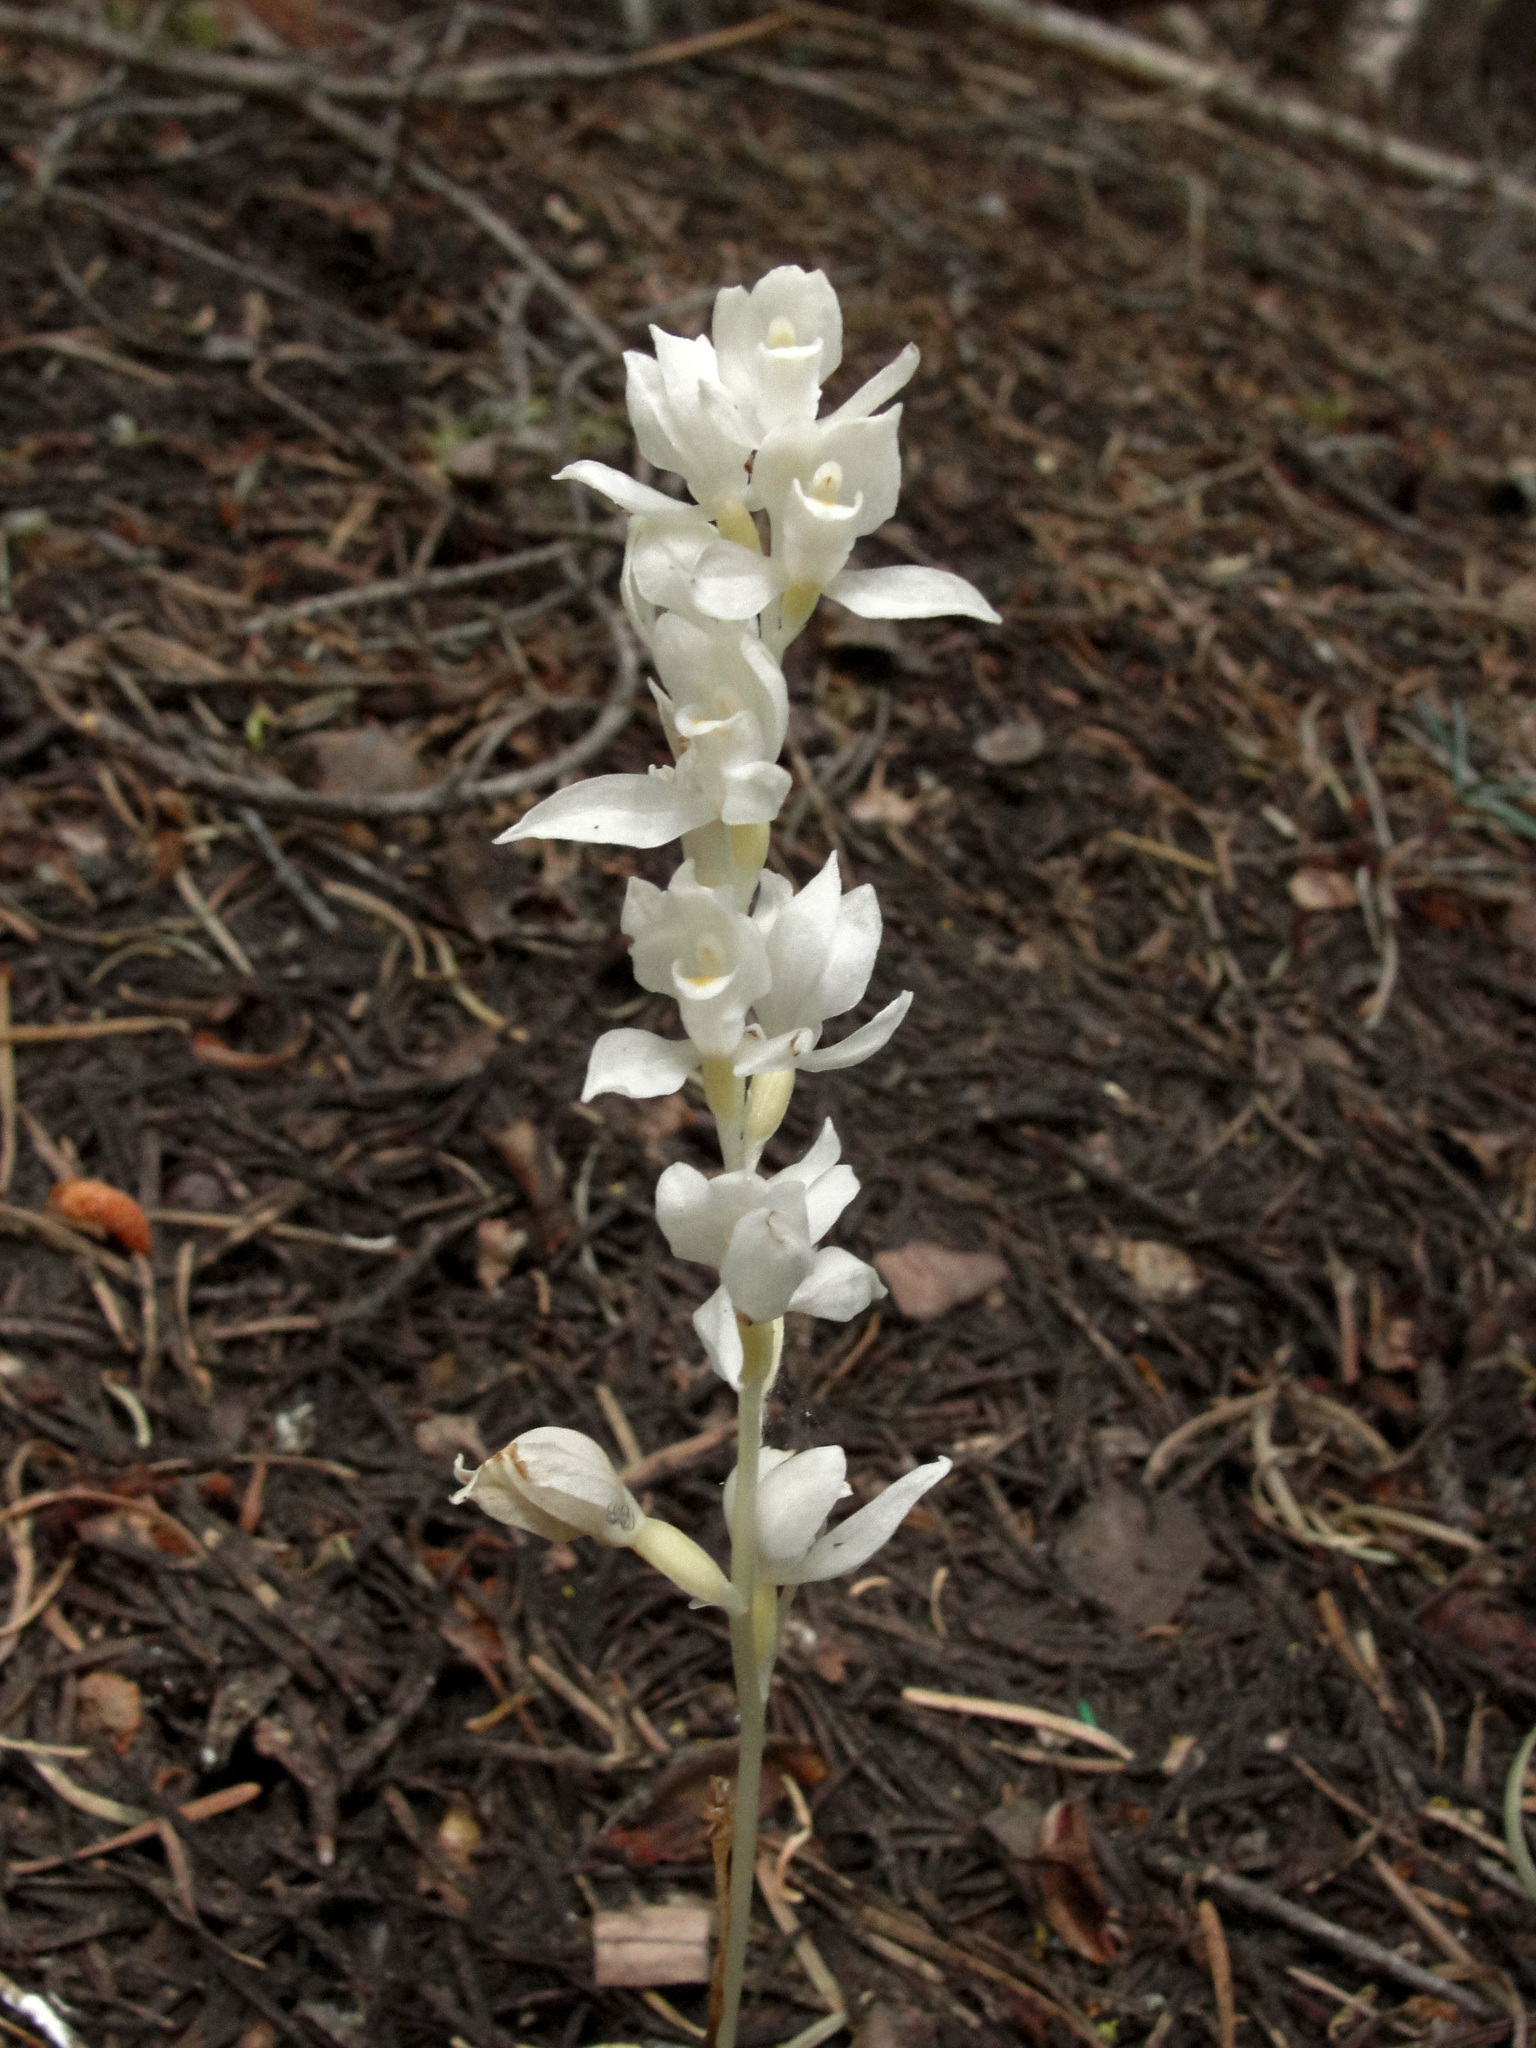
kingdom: Plantae
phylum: Tracheophyta
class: Liliopsida
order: Asparagales
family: Orchidaceae
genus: Cephalanthera
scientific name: Cephalanthera austiniae
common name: Phantom orchid
